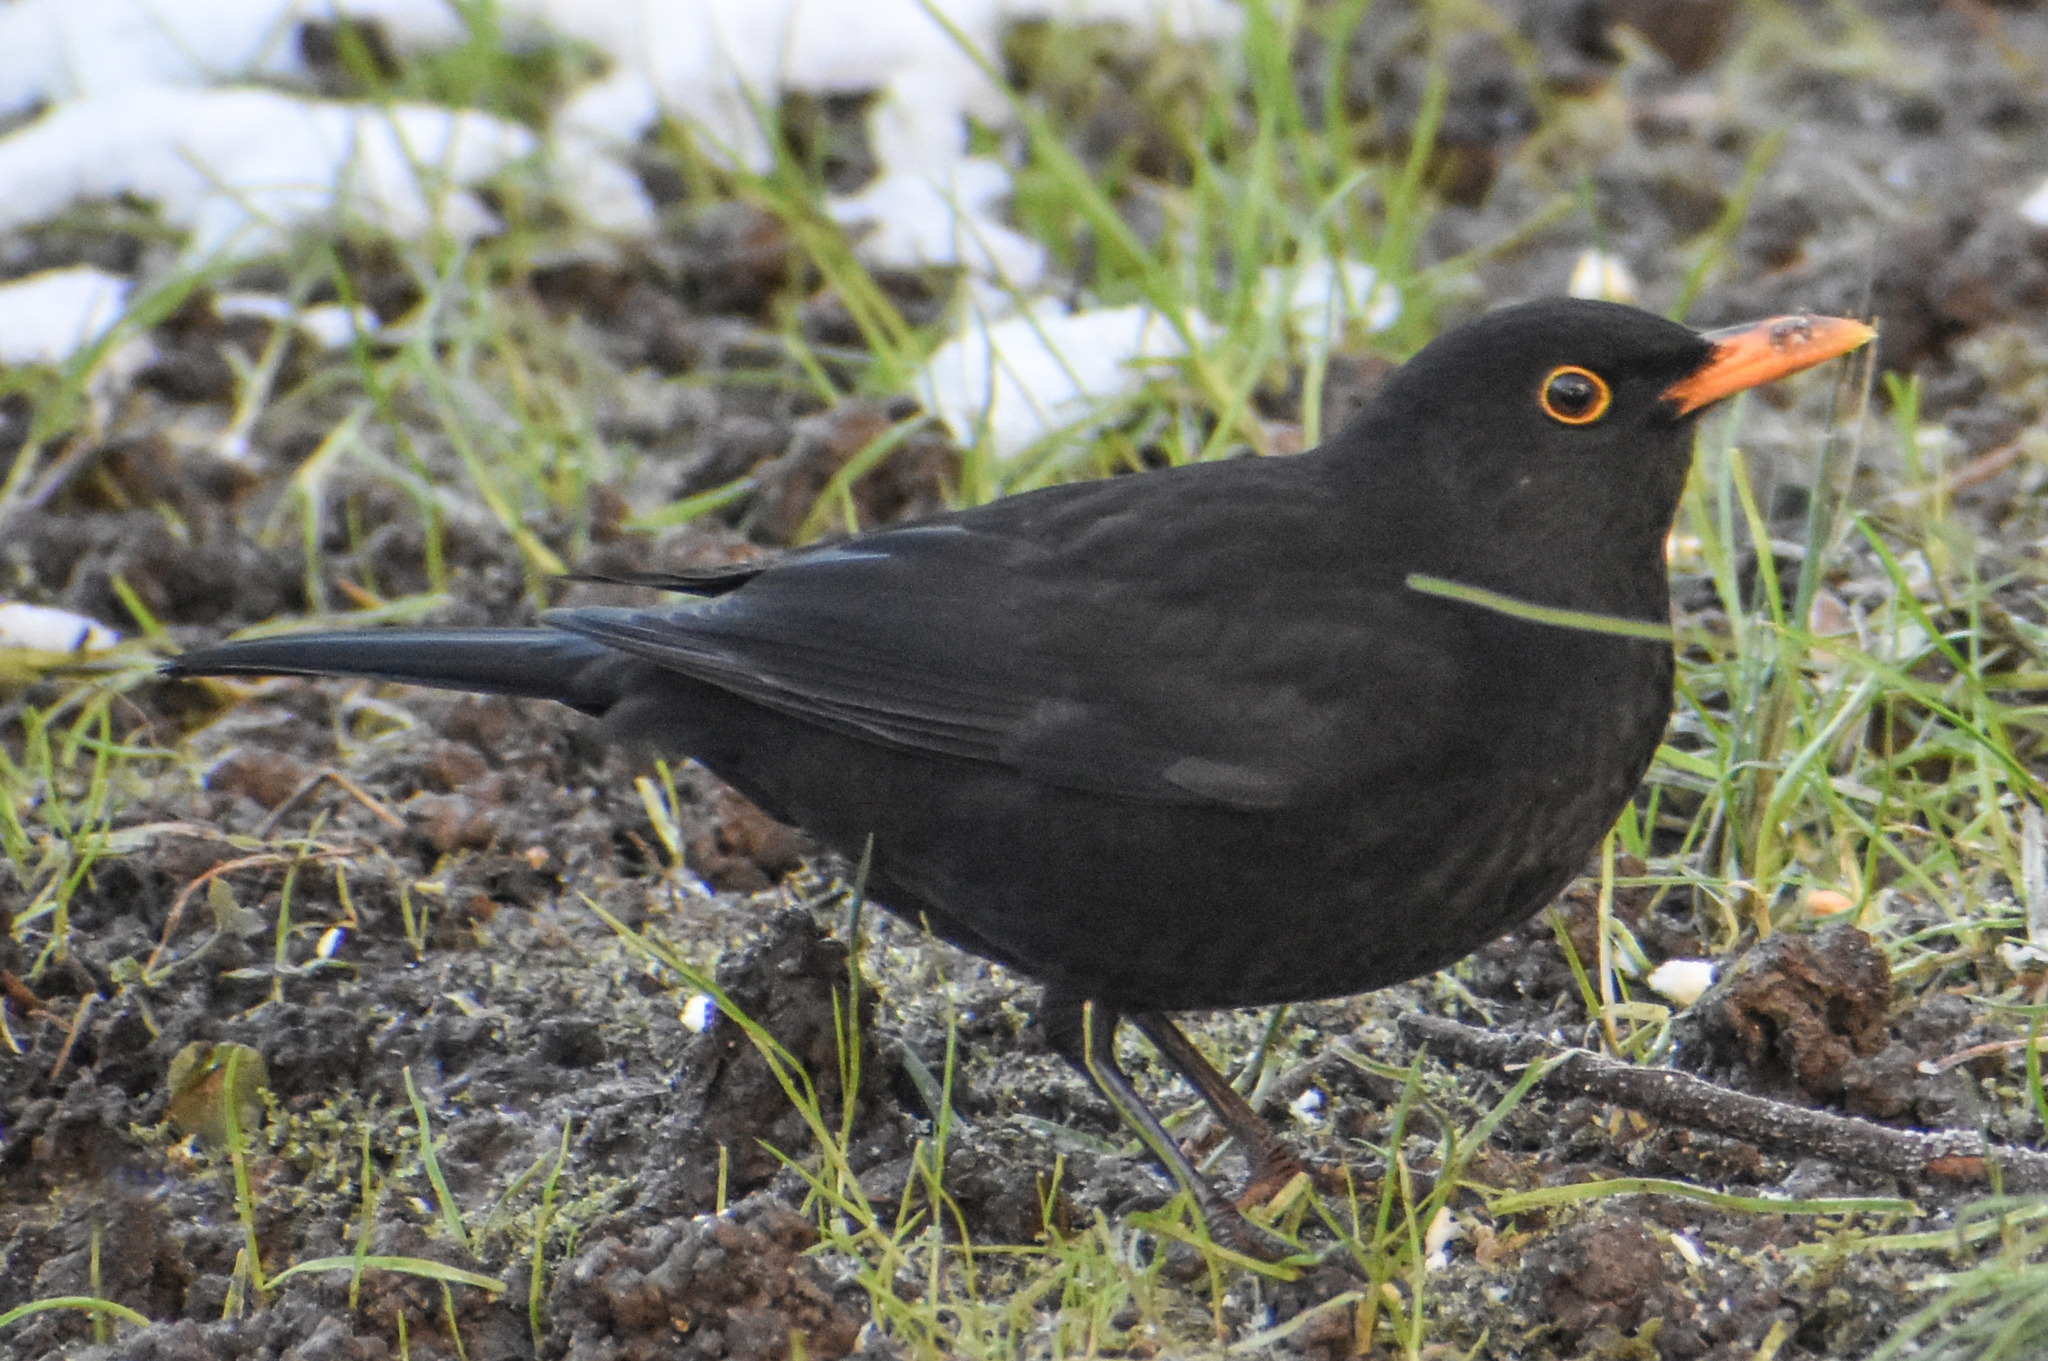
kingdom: Animalia
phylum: Chordata
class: Aves
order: Passeriformes
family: Turdidae
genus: Turdus
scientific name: Turdus merula
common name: Common blackbird
